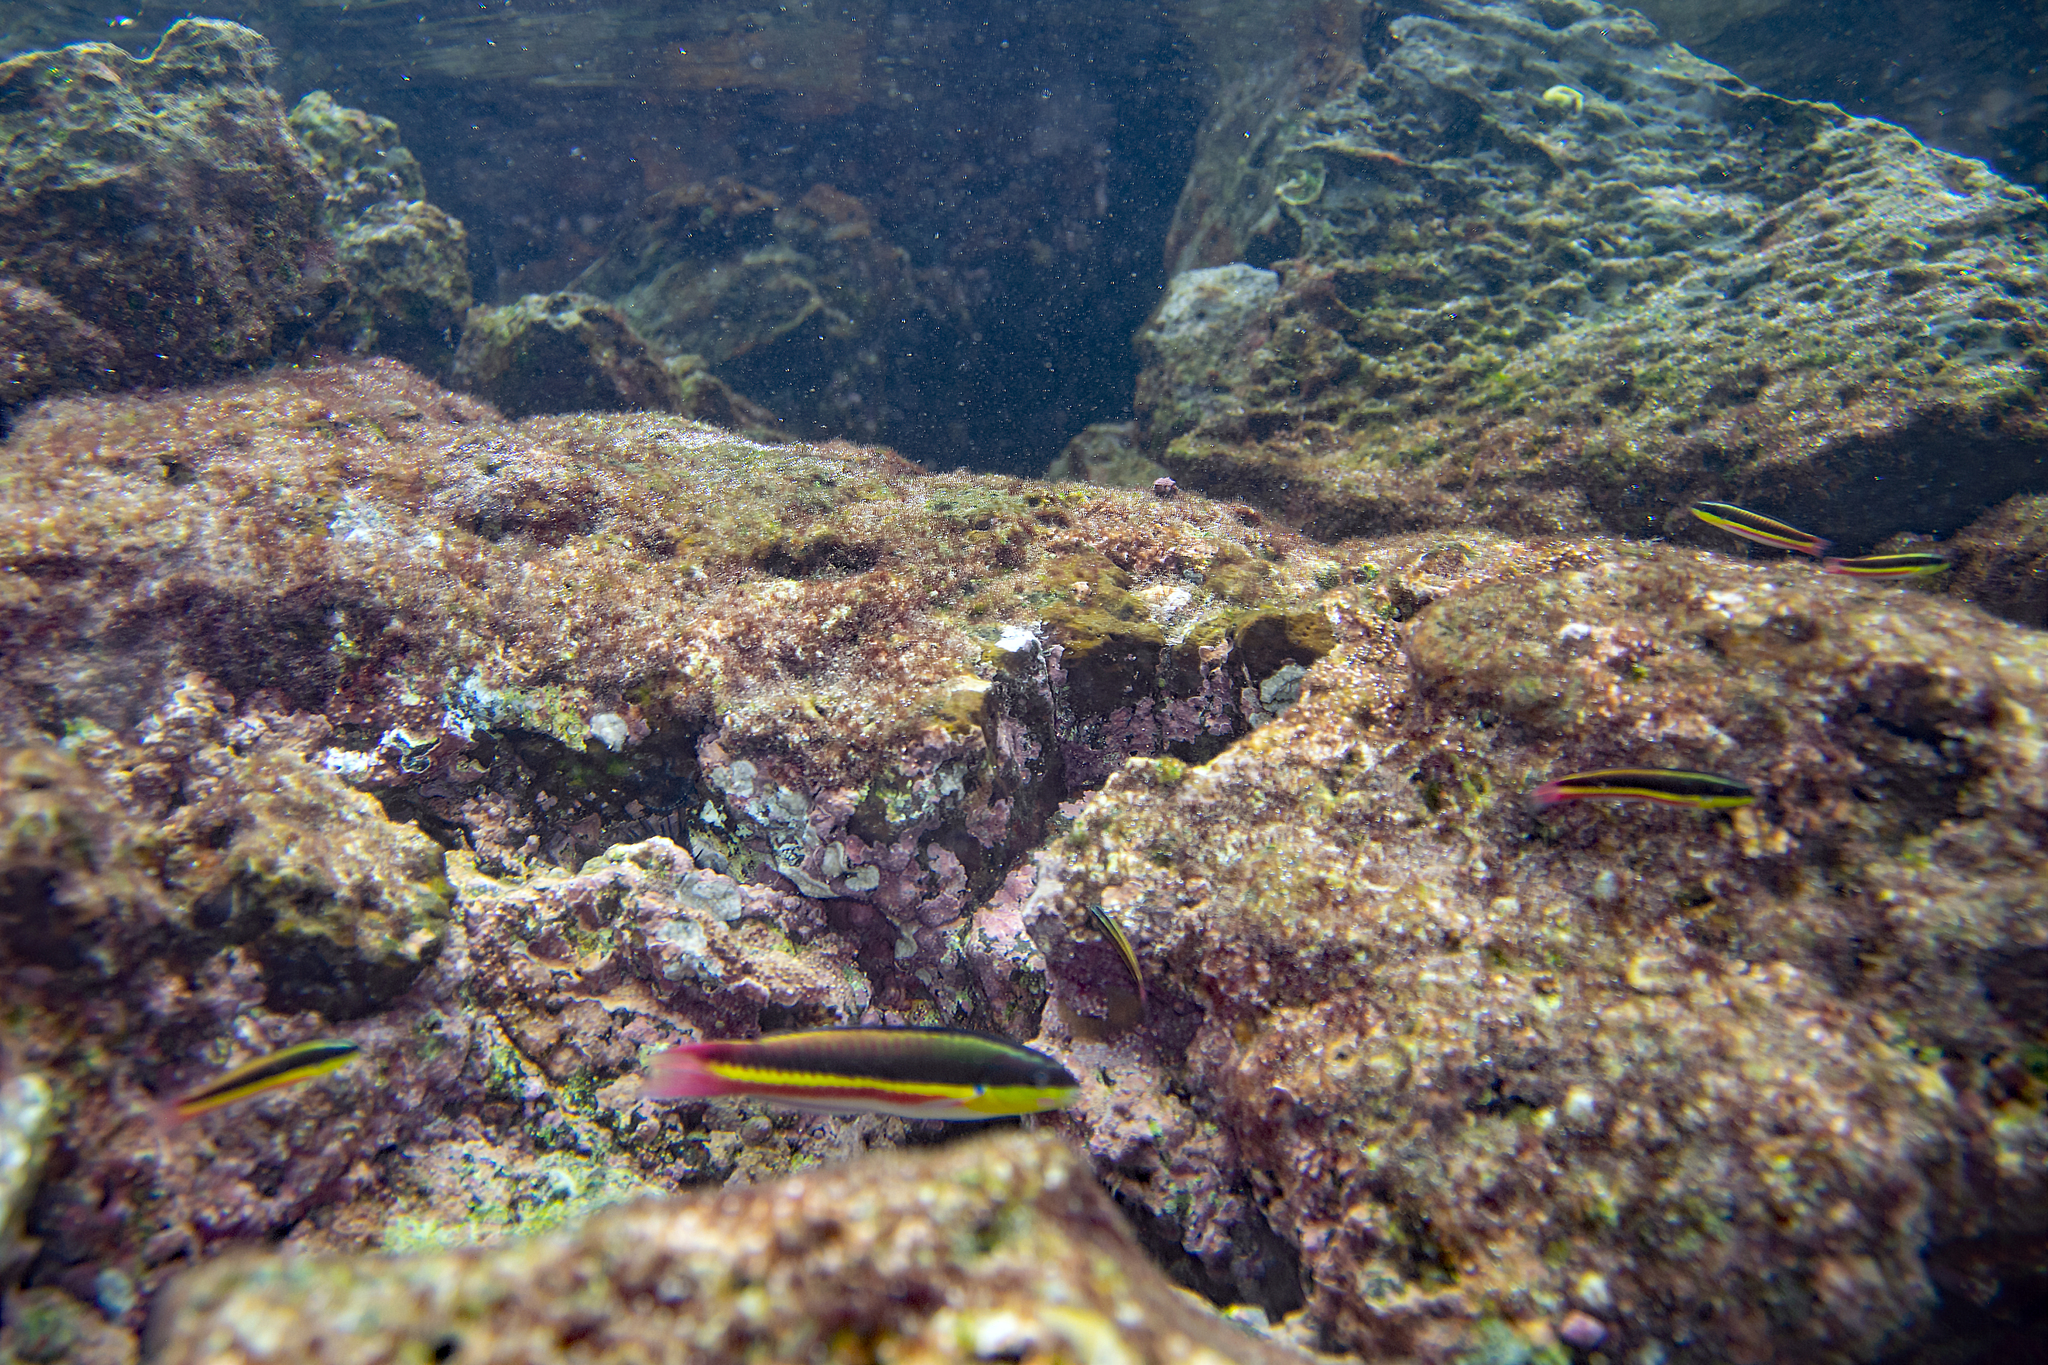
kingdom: Animalia
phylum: Chordata
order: Perciformes
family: Labridae
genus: Thalassoma
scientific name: Thalassoma lucasanum
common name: Cortez rainbow wrasse
